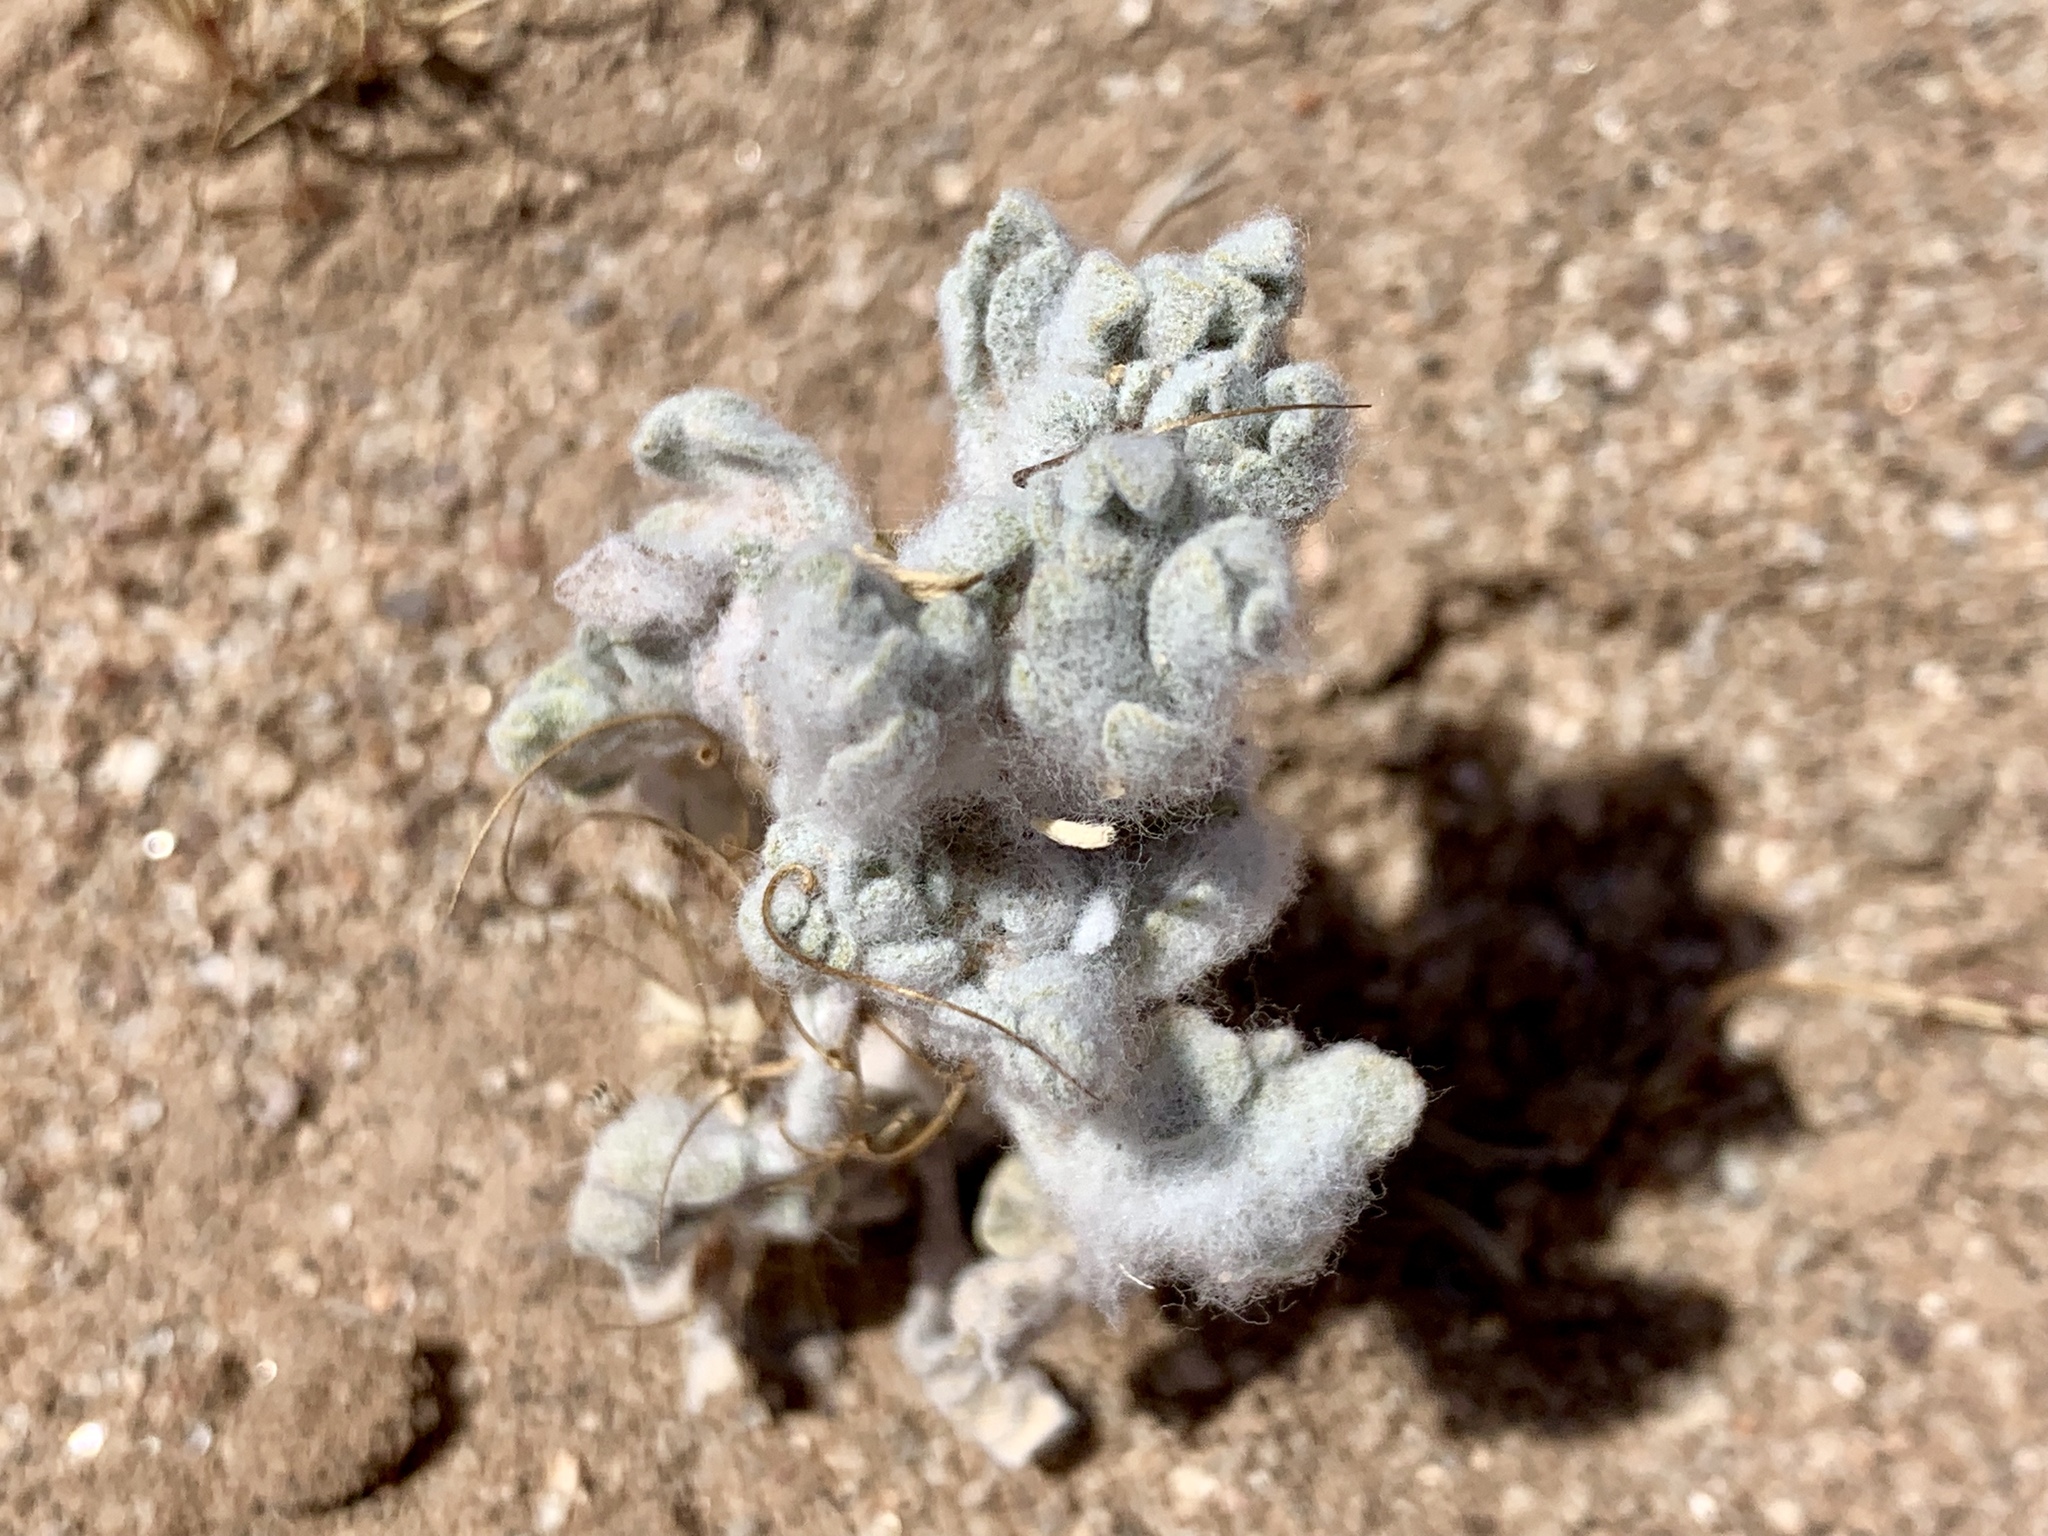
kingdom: Plantae
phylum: Tracheophyta
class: Magnoliopsida
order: Asterales
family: Asteraceae
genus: Baileya
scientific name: Baileya multiradiata
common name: Desert-marigold
